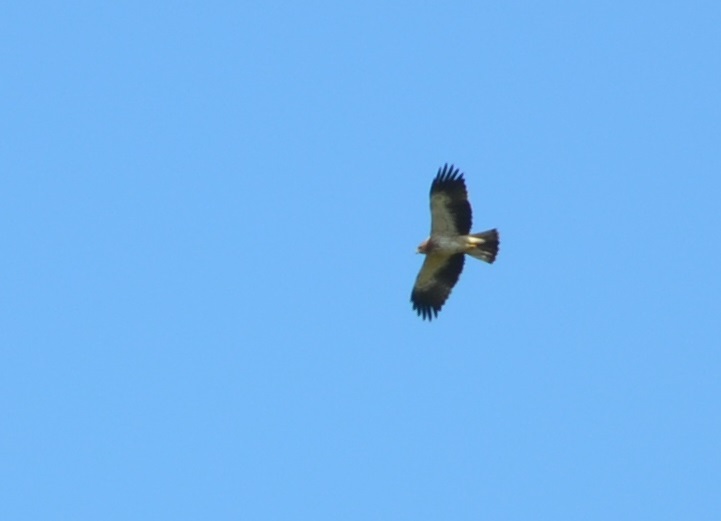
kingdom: Animalia
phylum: Chordata
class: Aves
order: Accipitriformes
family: Accipitridae
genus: Hieraaetus
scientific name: Hieraaetus pennatus
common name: Booted eagle
